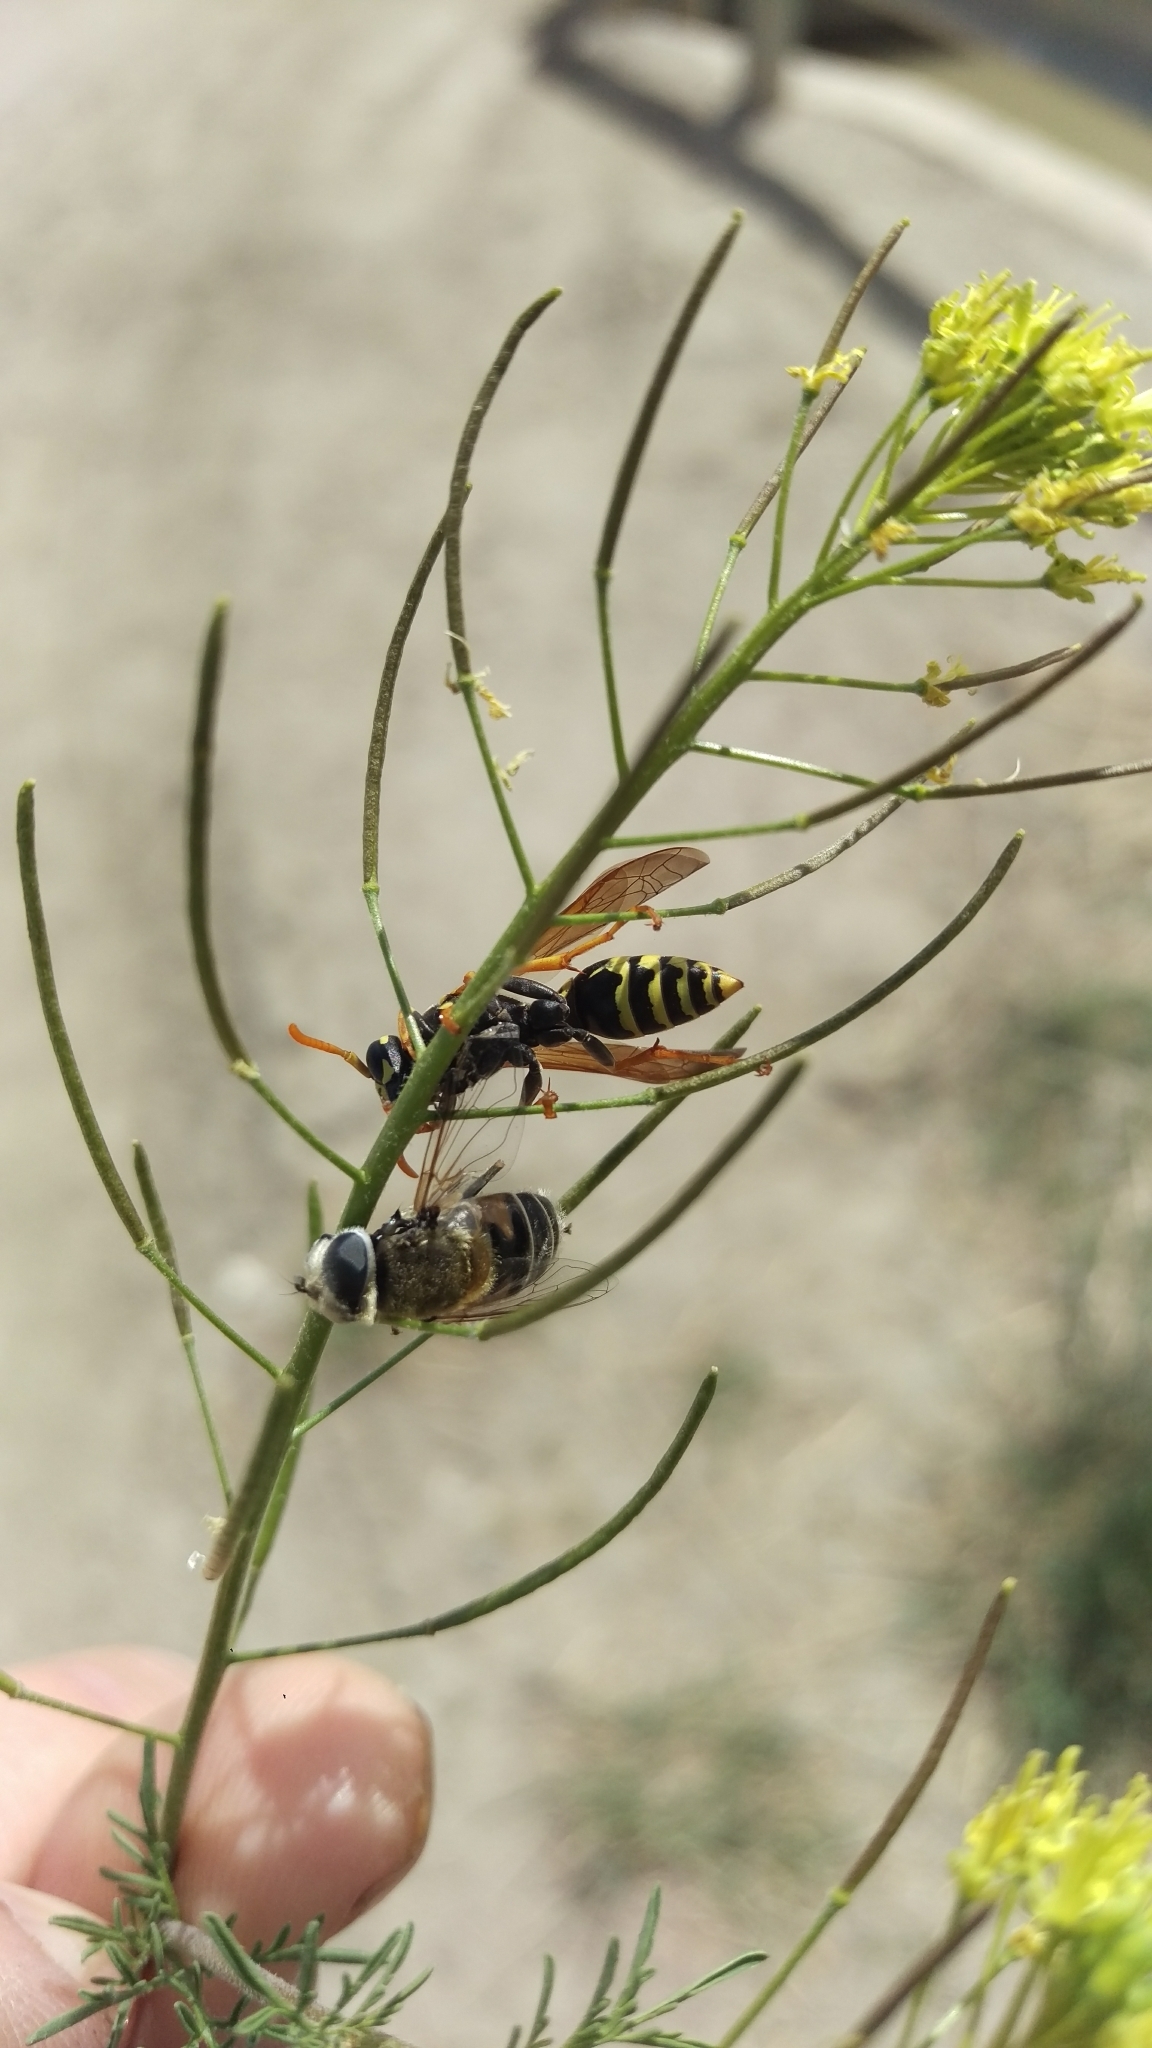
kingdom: Animalia
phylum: Arthropoda
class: Insecta
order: Hymenoptera
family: Eumenidae
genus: Polistes
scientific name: Polistes dominula
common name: Paper wasp
